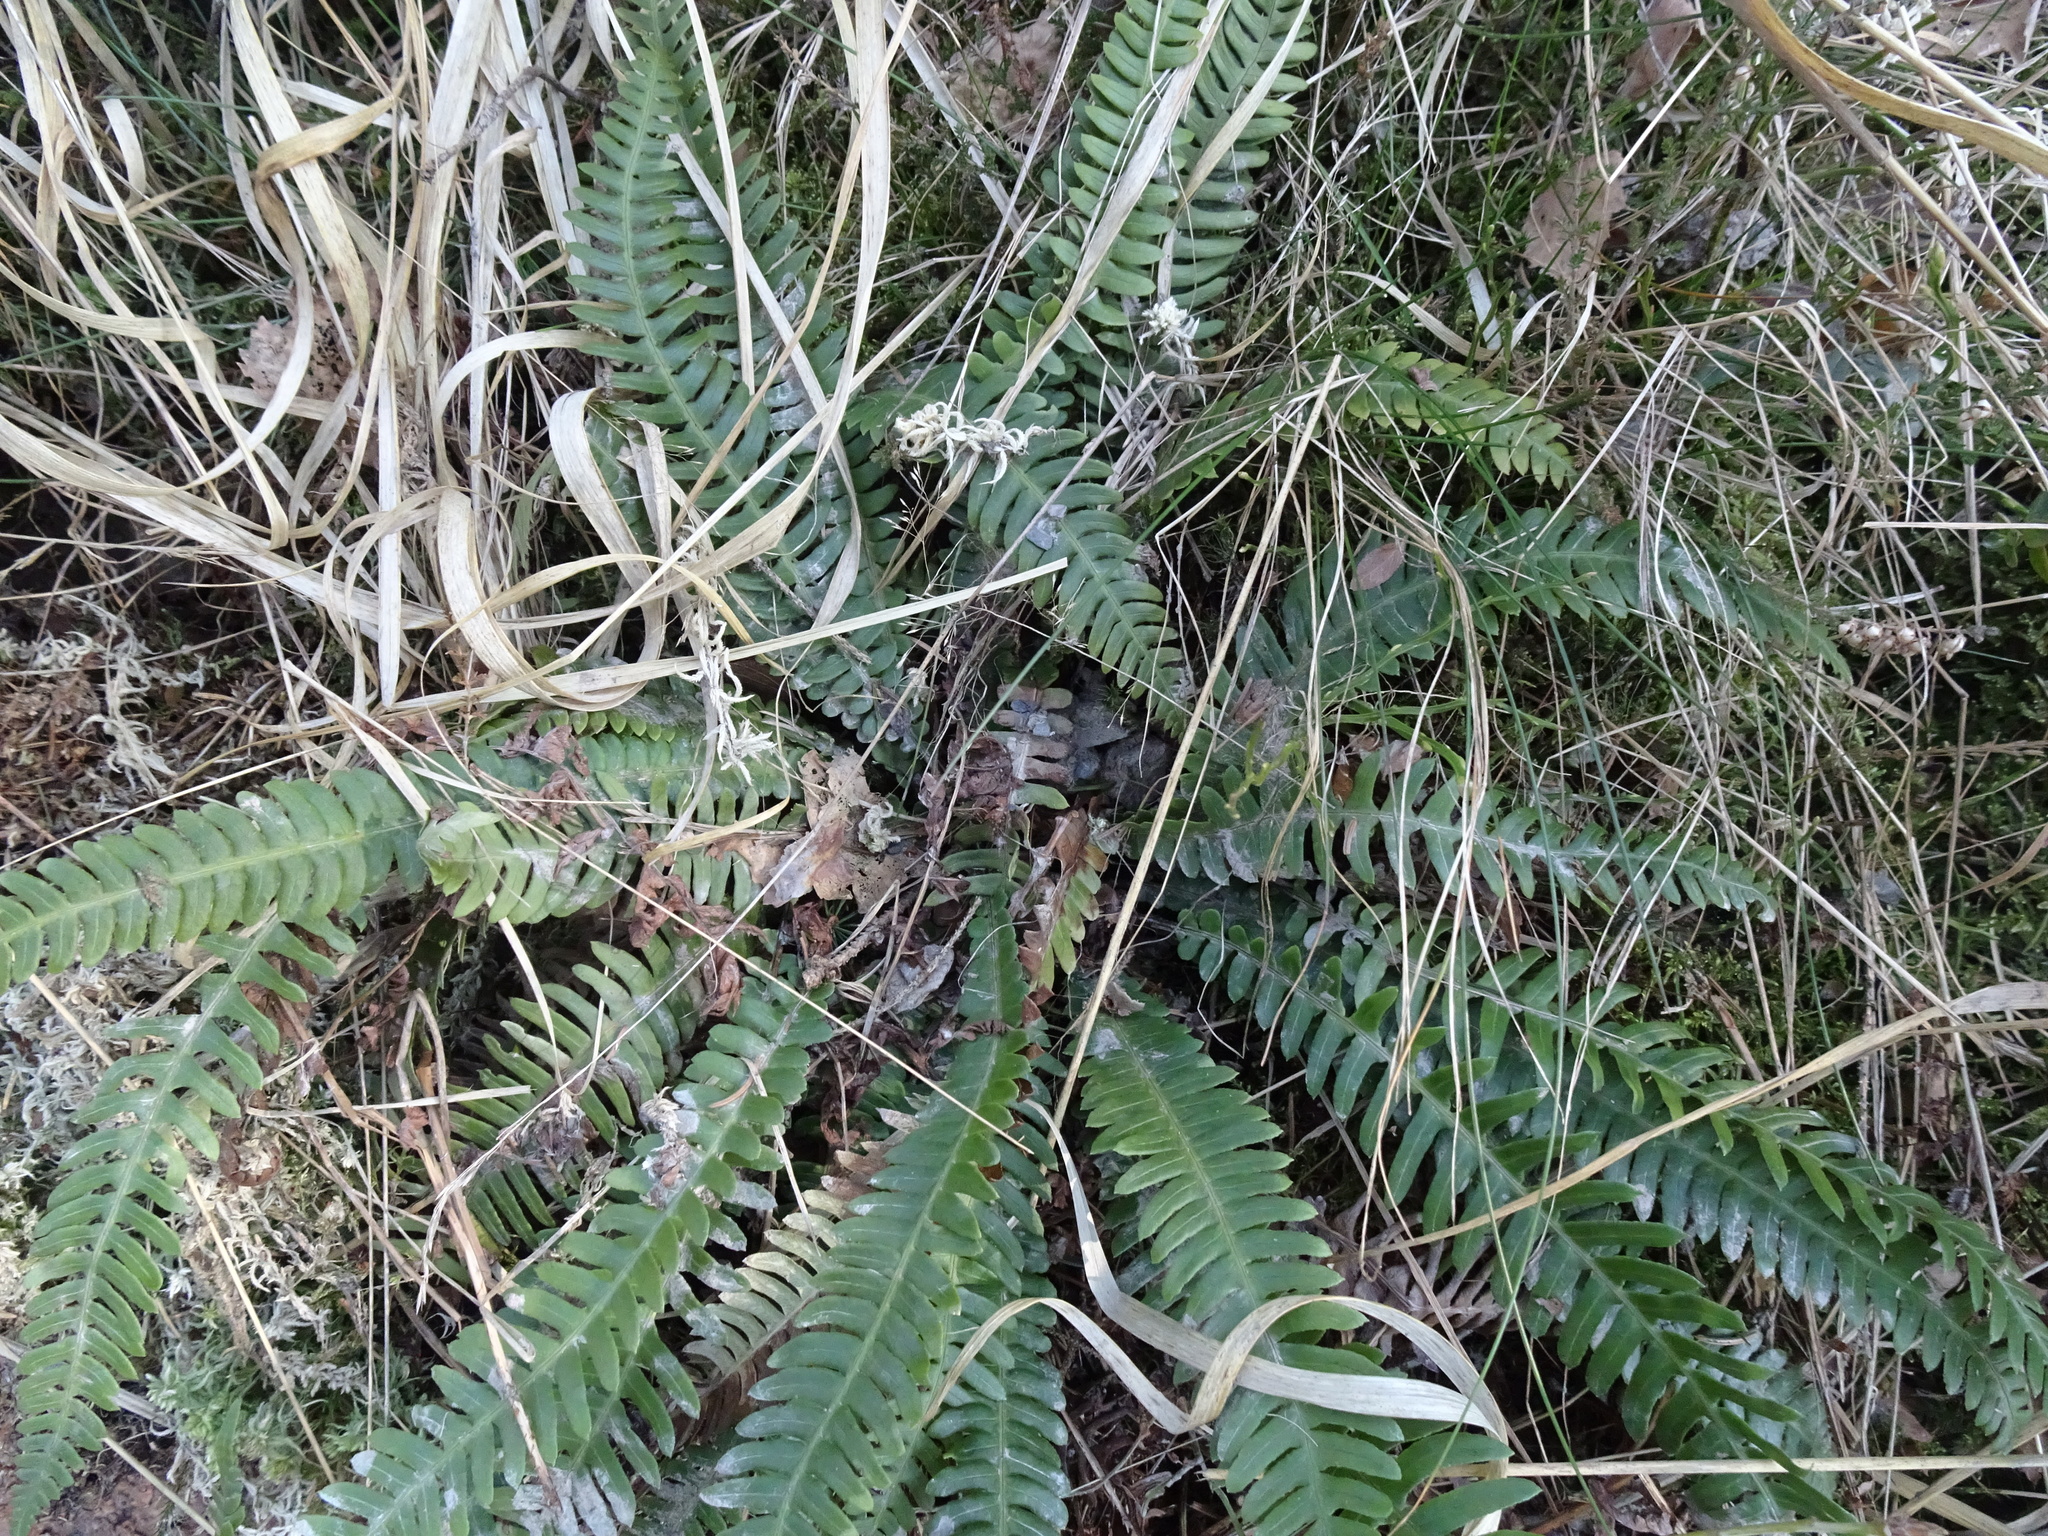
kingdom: Plantae
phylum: Tracheophyta
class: Polypodiopsida
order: Polypodiales
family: Blechnaceae
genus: Struthiopteris
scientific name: Struthiopteris spicant
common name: Deer fern
